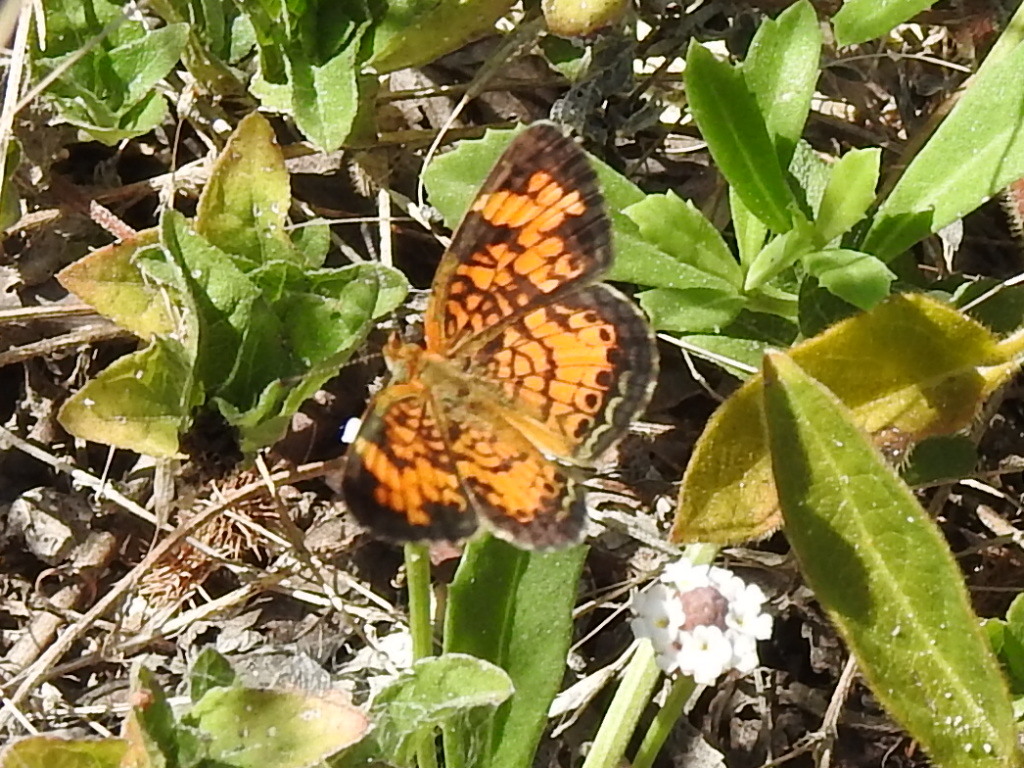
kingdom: Animalia
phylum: Arthropoda
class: Insecta
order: Lepidoptera
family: Nymphalidae
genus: Phyciodes
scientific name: Phyciodes tharos
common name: Pearl crescent
